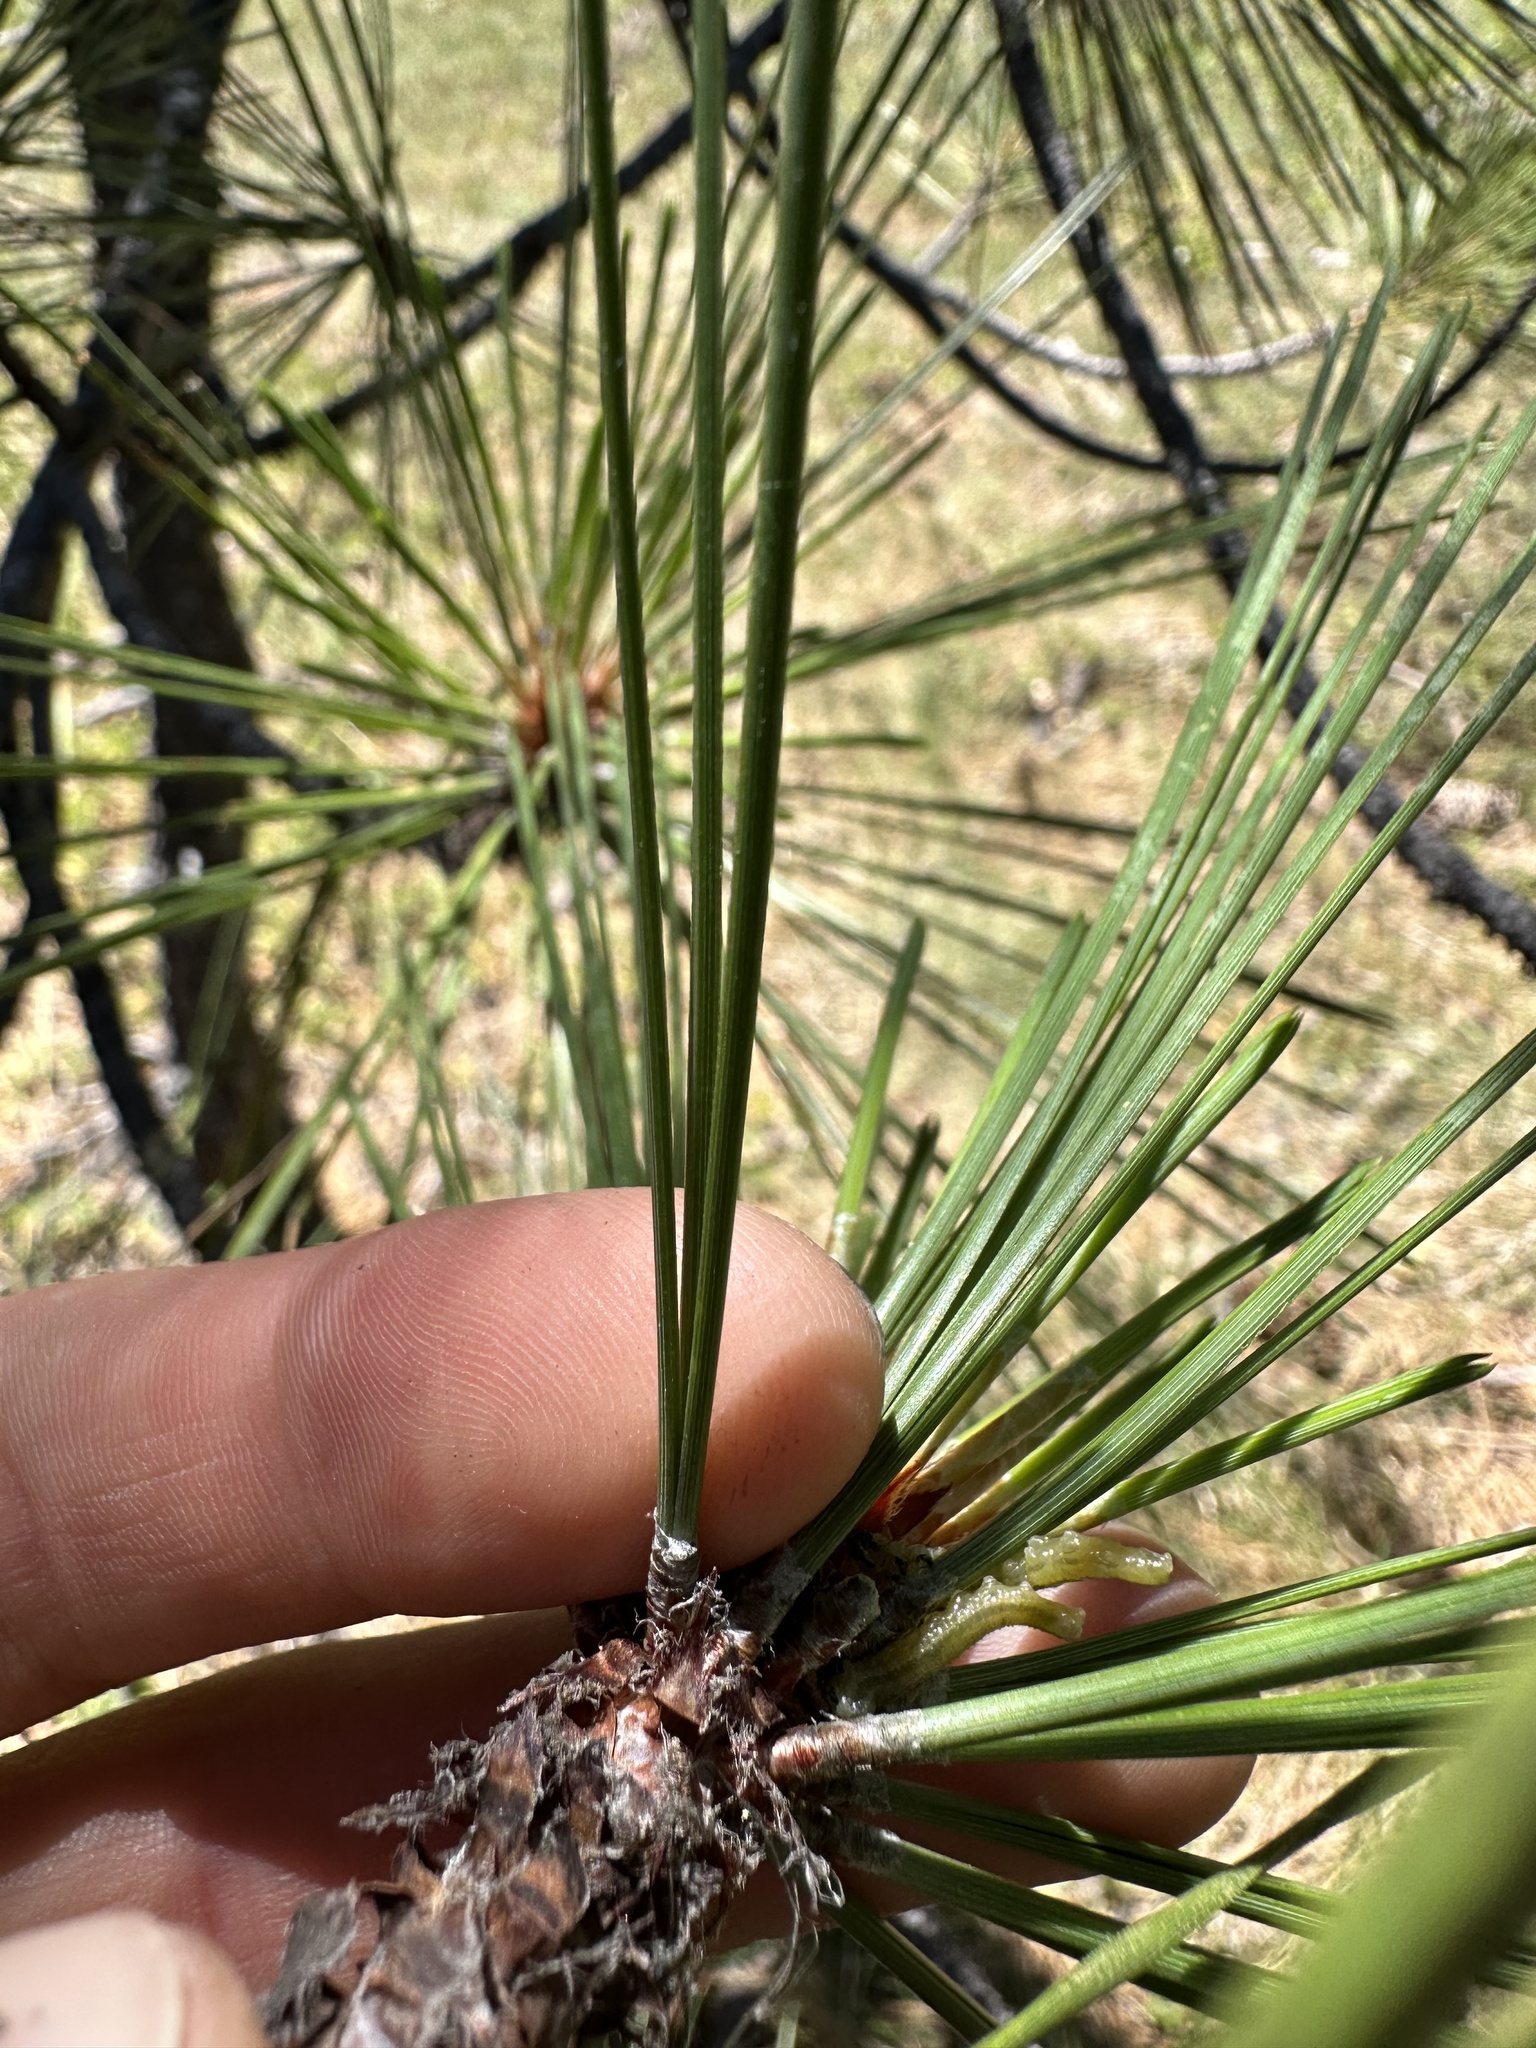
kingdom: Plantae
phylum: Tracheophyta
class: Pinopsida
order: Pinales
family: Pinaceae
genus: Pinus
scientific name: Pinus jeffreyi
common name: Jeffrey pine
